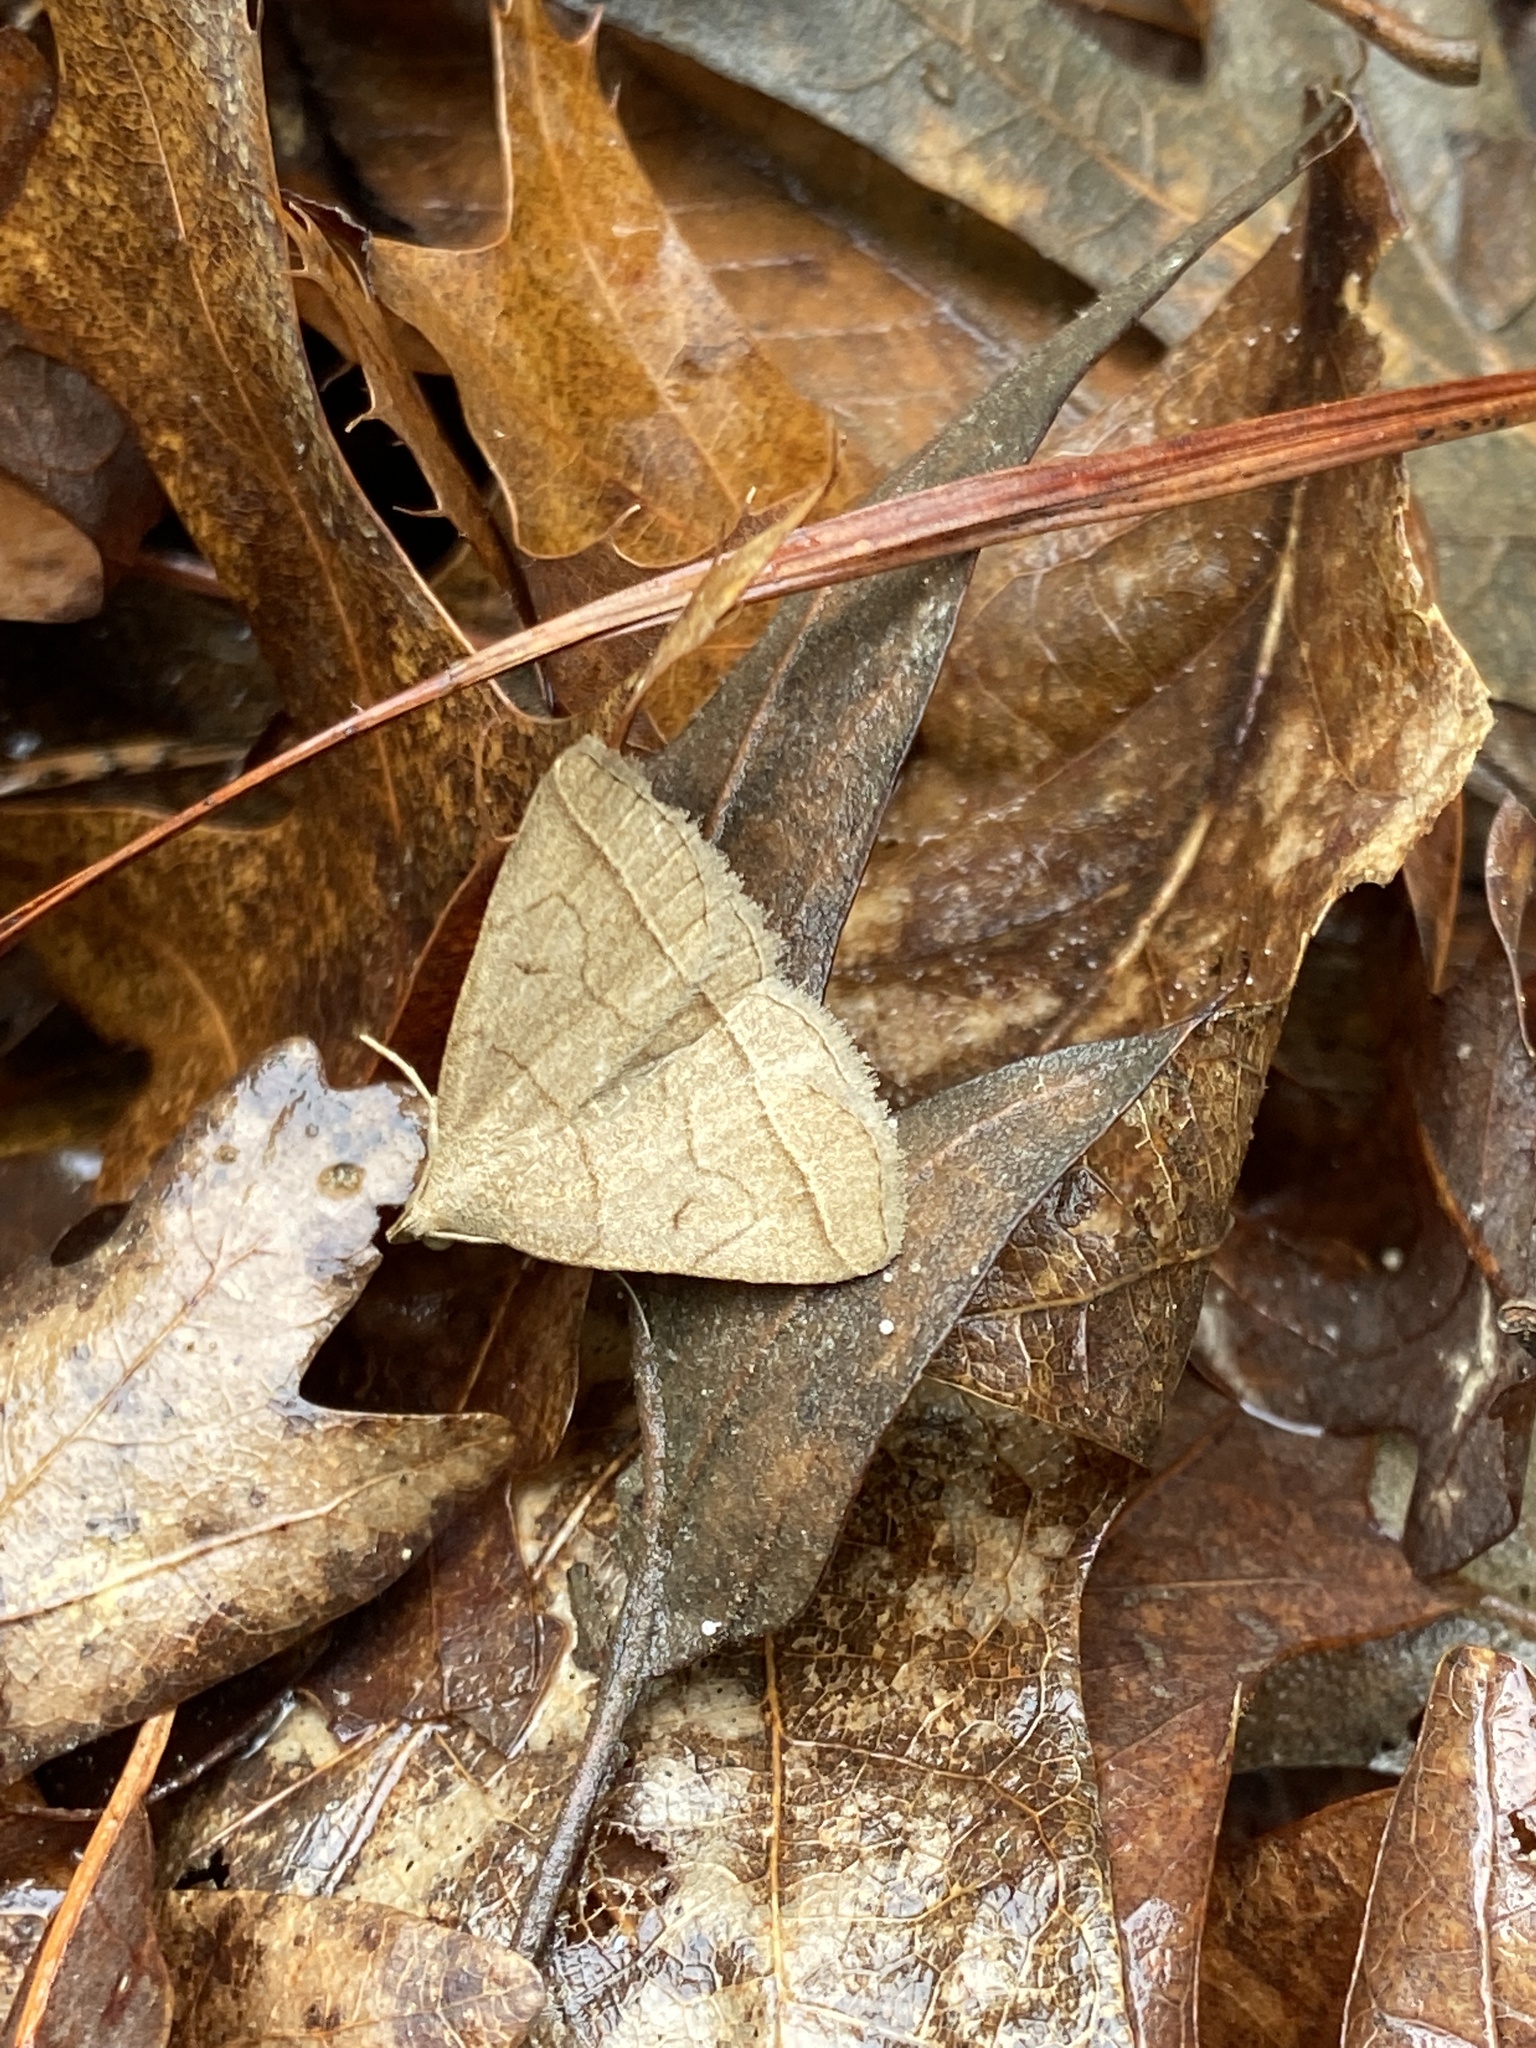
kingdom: Animalia
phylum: Arthropoda
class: Insecta
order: Lepidoptera
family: Erebidae
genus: Zanclognatha
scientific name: Zanclognatha cruralis
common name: Early fan-foot
